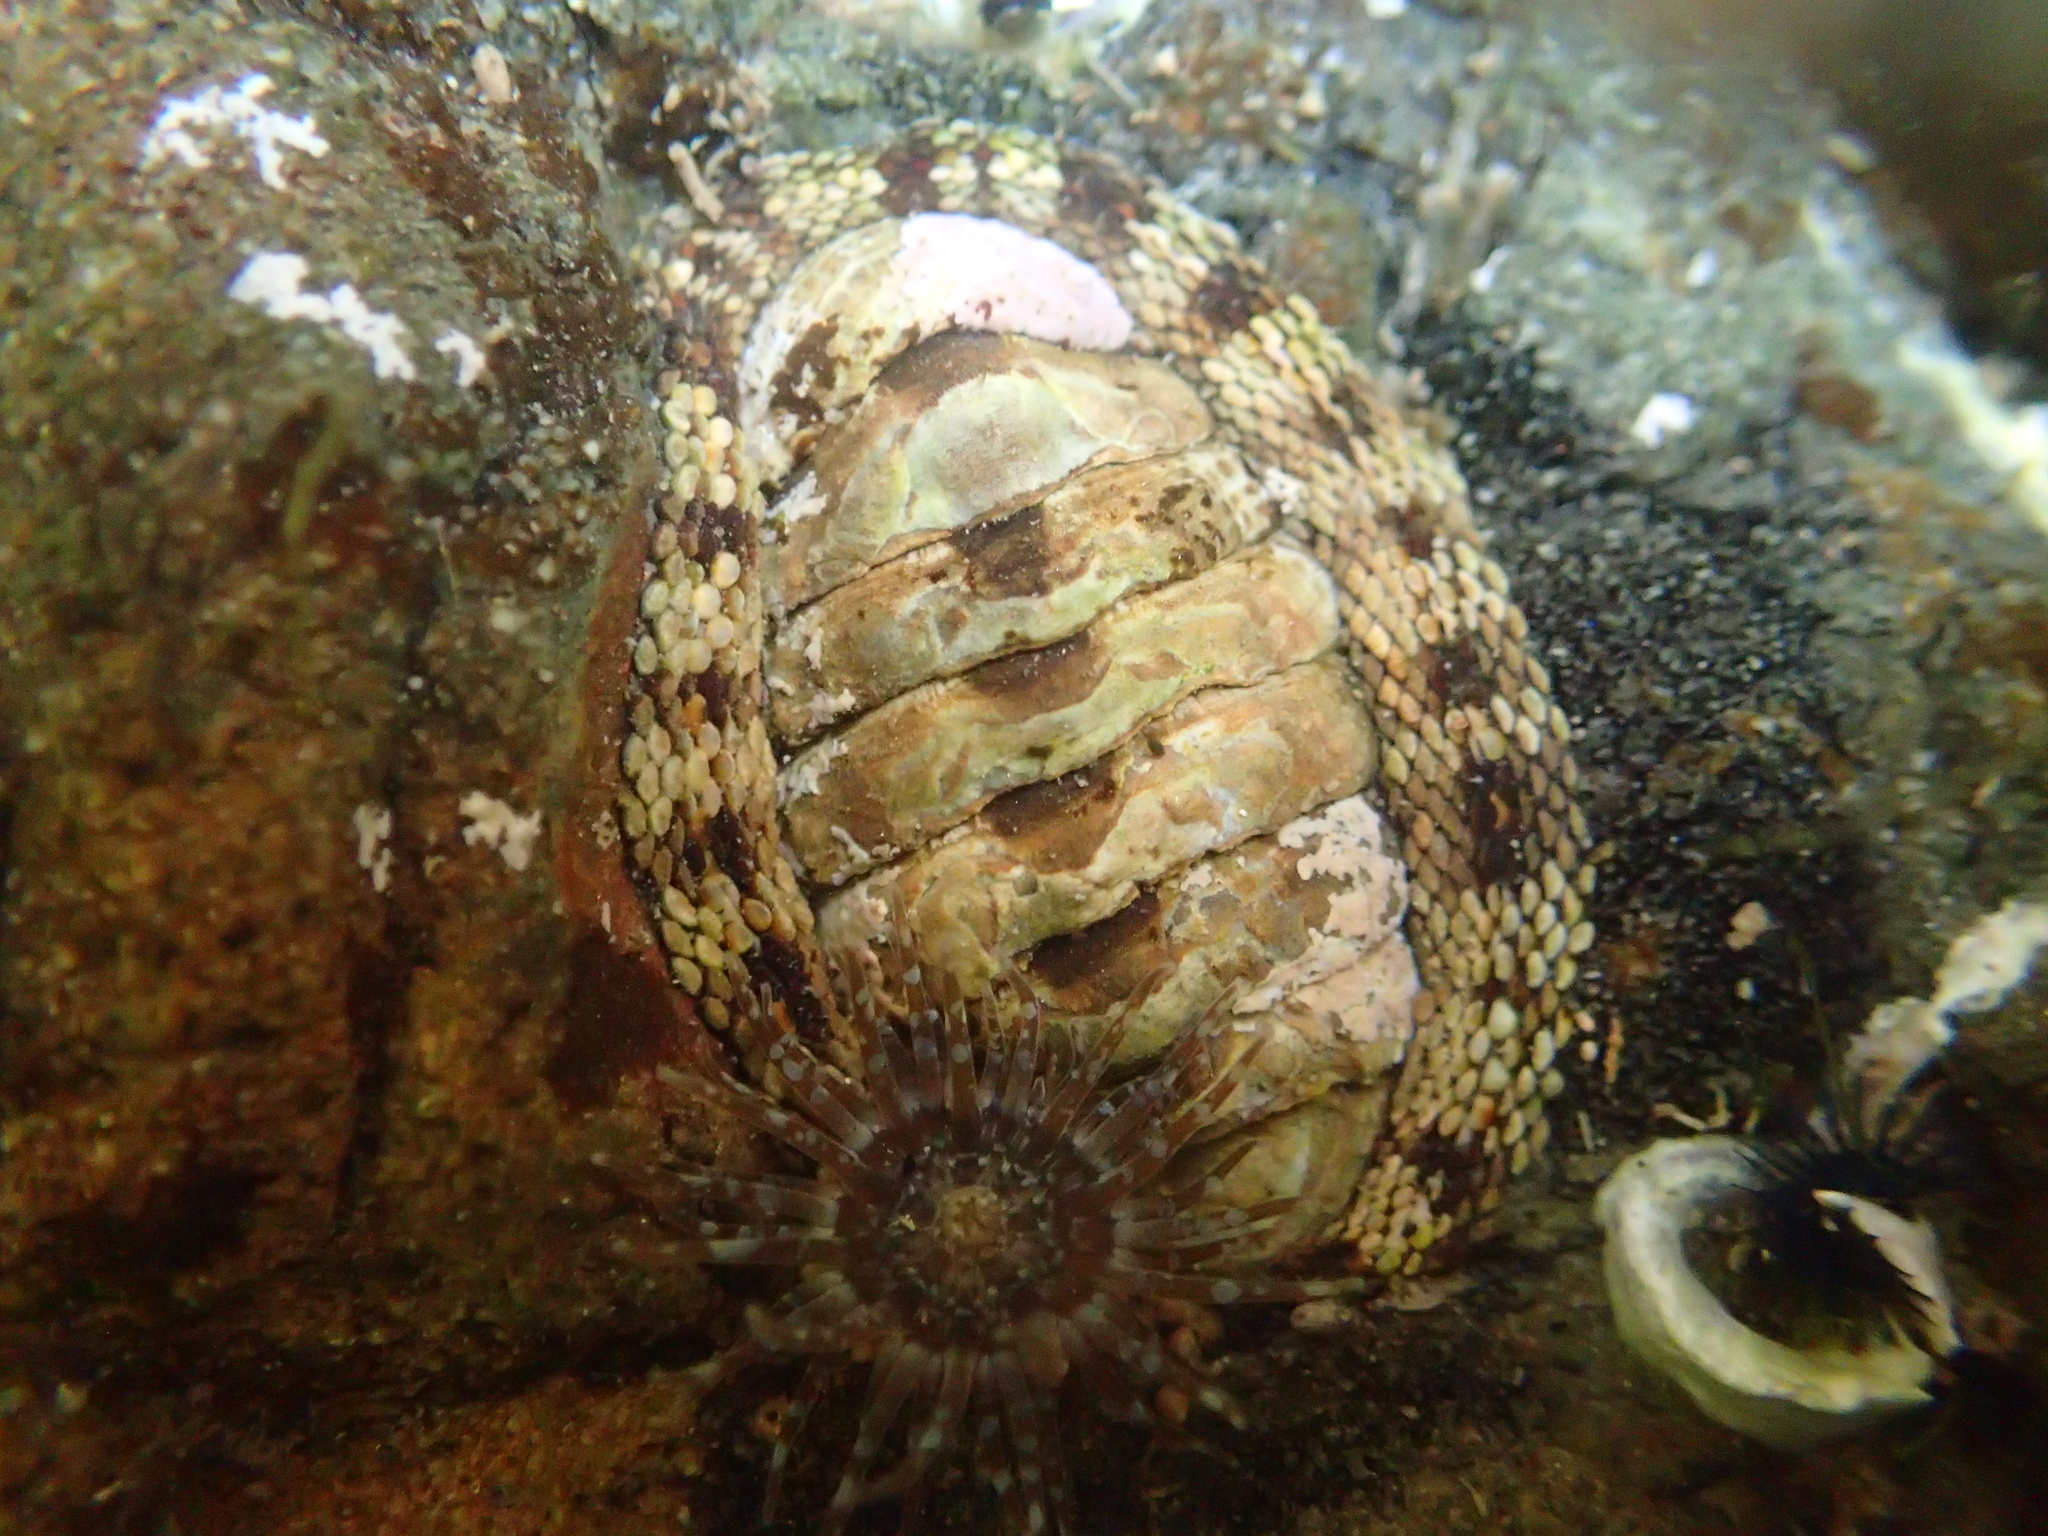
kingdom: Animalia
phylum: Mollusca
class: Polyplacophora
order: Chitonida
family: Chitonidae
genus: Sypharochiton
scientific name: Sypharochiton pelliserpentis
